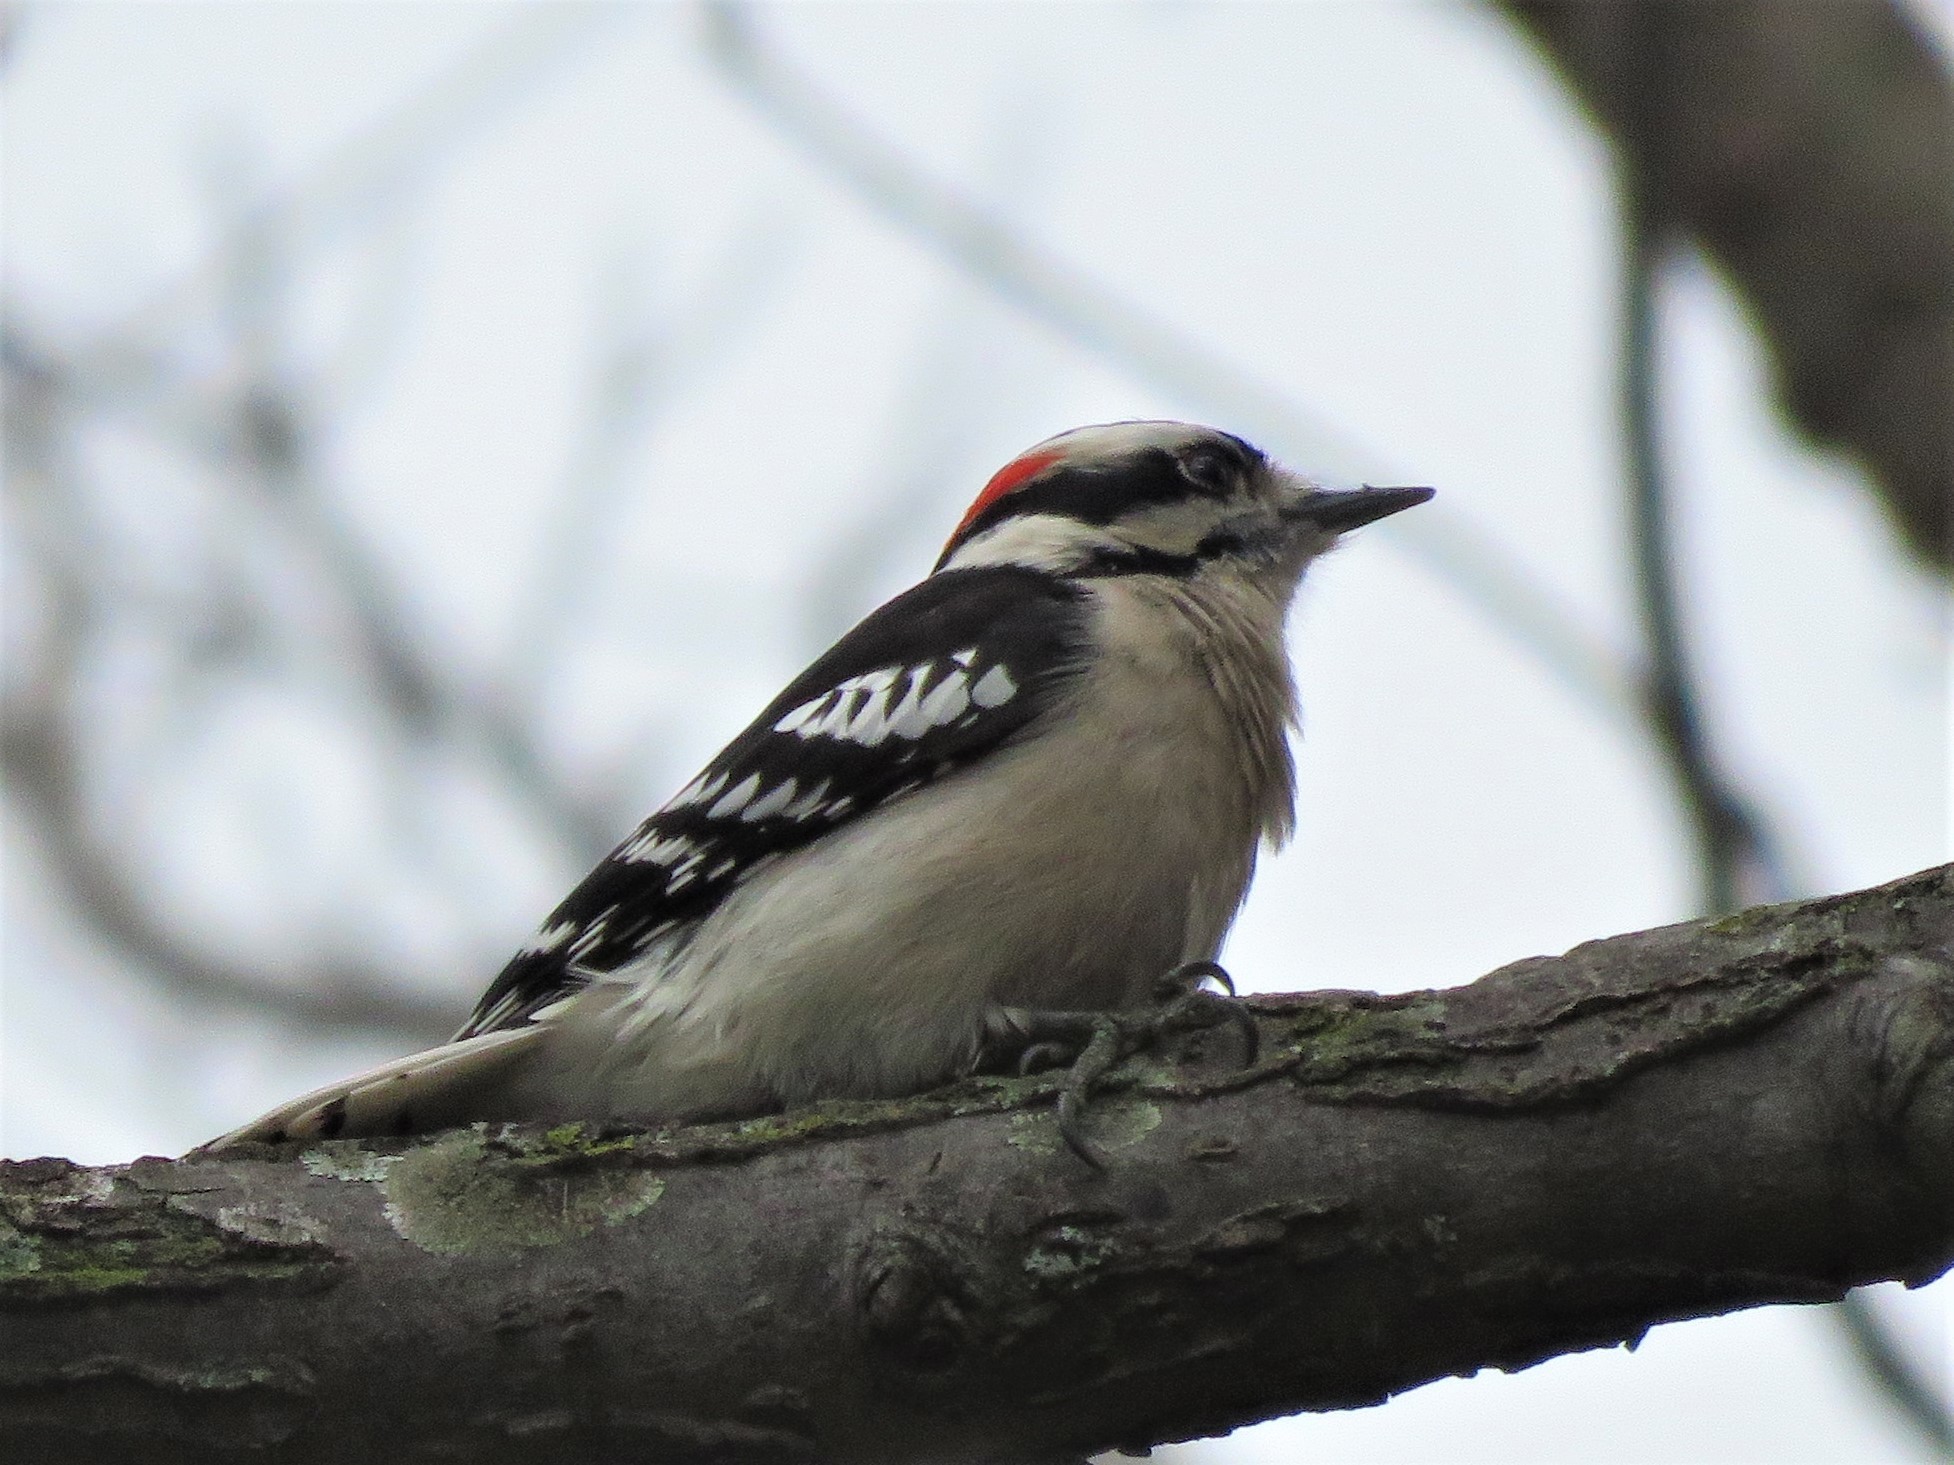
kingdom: Animalia
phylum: Chordata
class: Aves
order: Piciformes
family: Picidae
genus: Dryobates
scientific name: Dryobates pubescens
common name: Downy woodpecker
